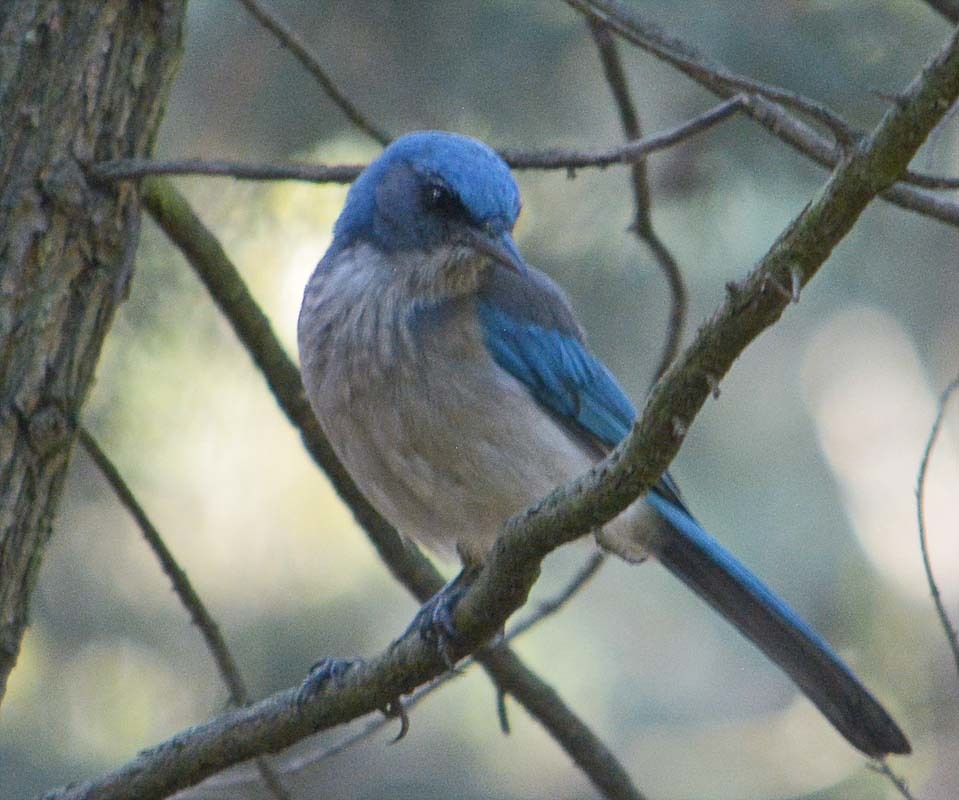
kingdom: Animalia
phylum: Chordata
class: Aves
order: Passeriformes
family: Corvidae
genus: Aphelocoma
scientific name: Aphelocoma ultramarina
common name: Transvolcanic jay
